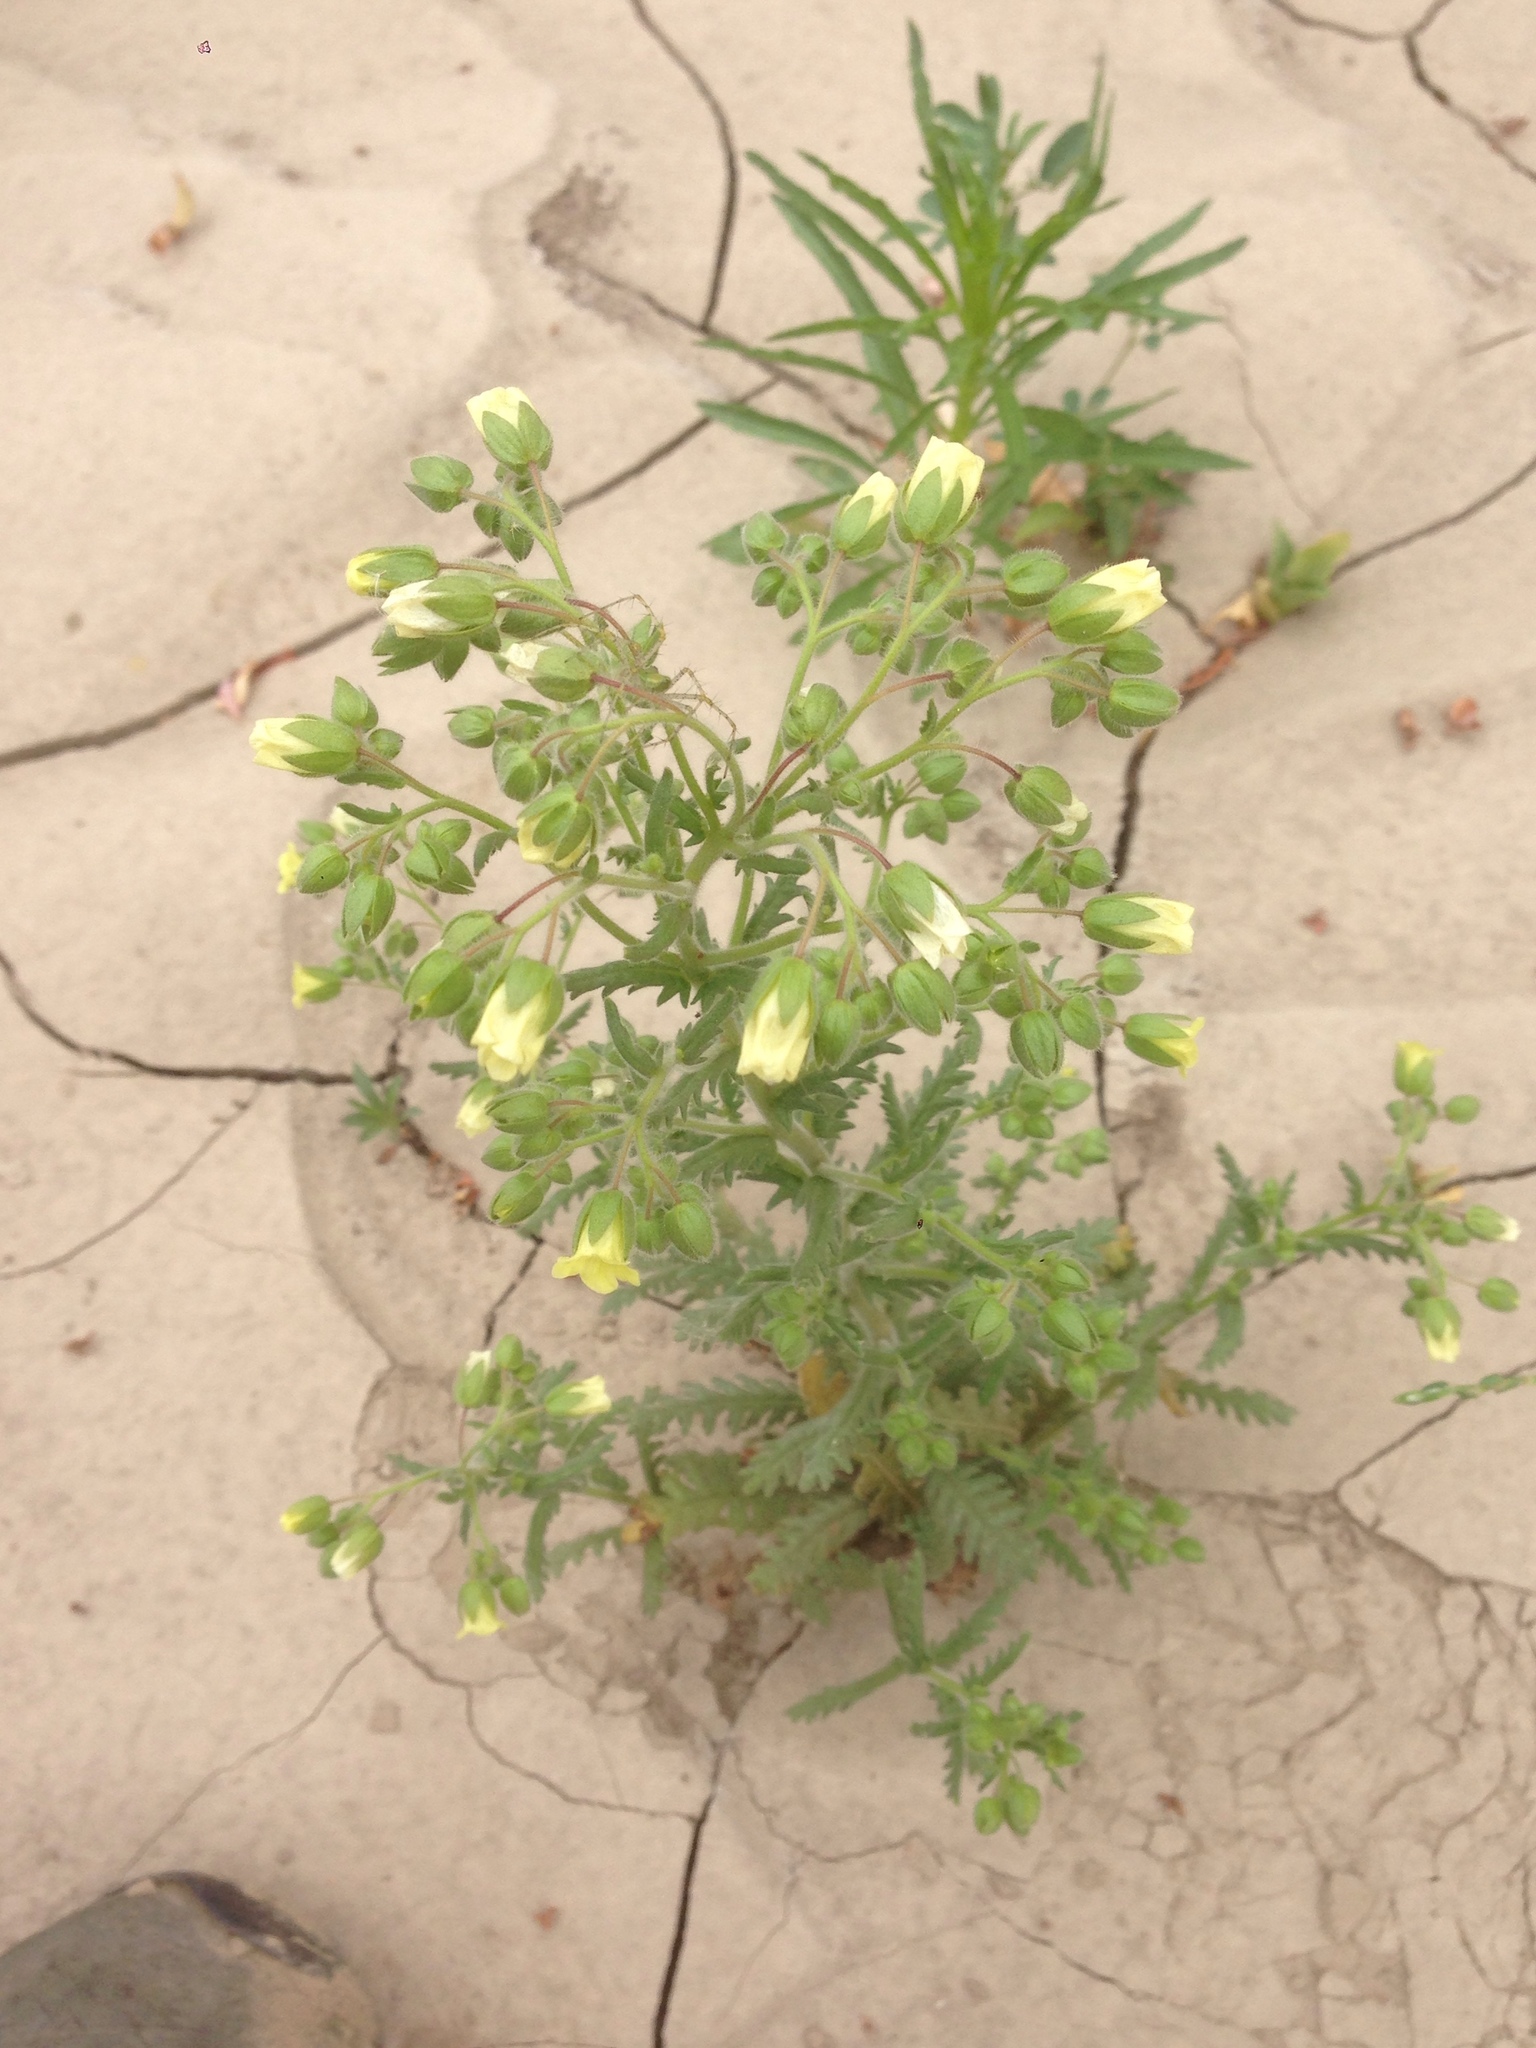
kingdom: Plantae
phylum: Tracheophyta
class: Magnoliopsida
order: Boraginales
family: Hydrophyllaceae
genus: Emmenanthe
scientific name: Emmenanthe penduliflora
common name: Whispering-bells
